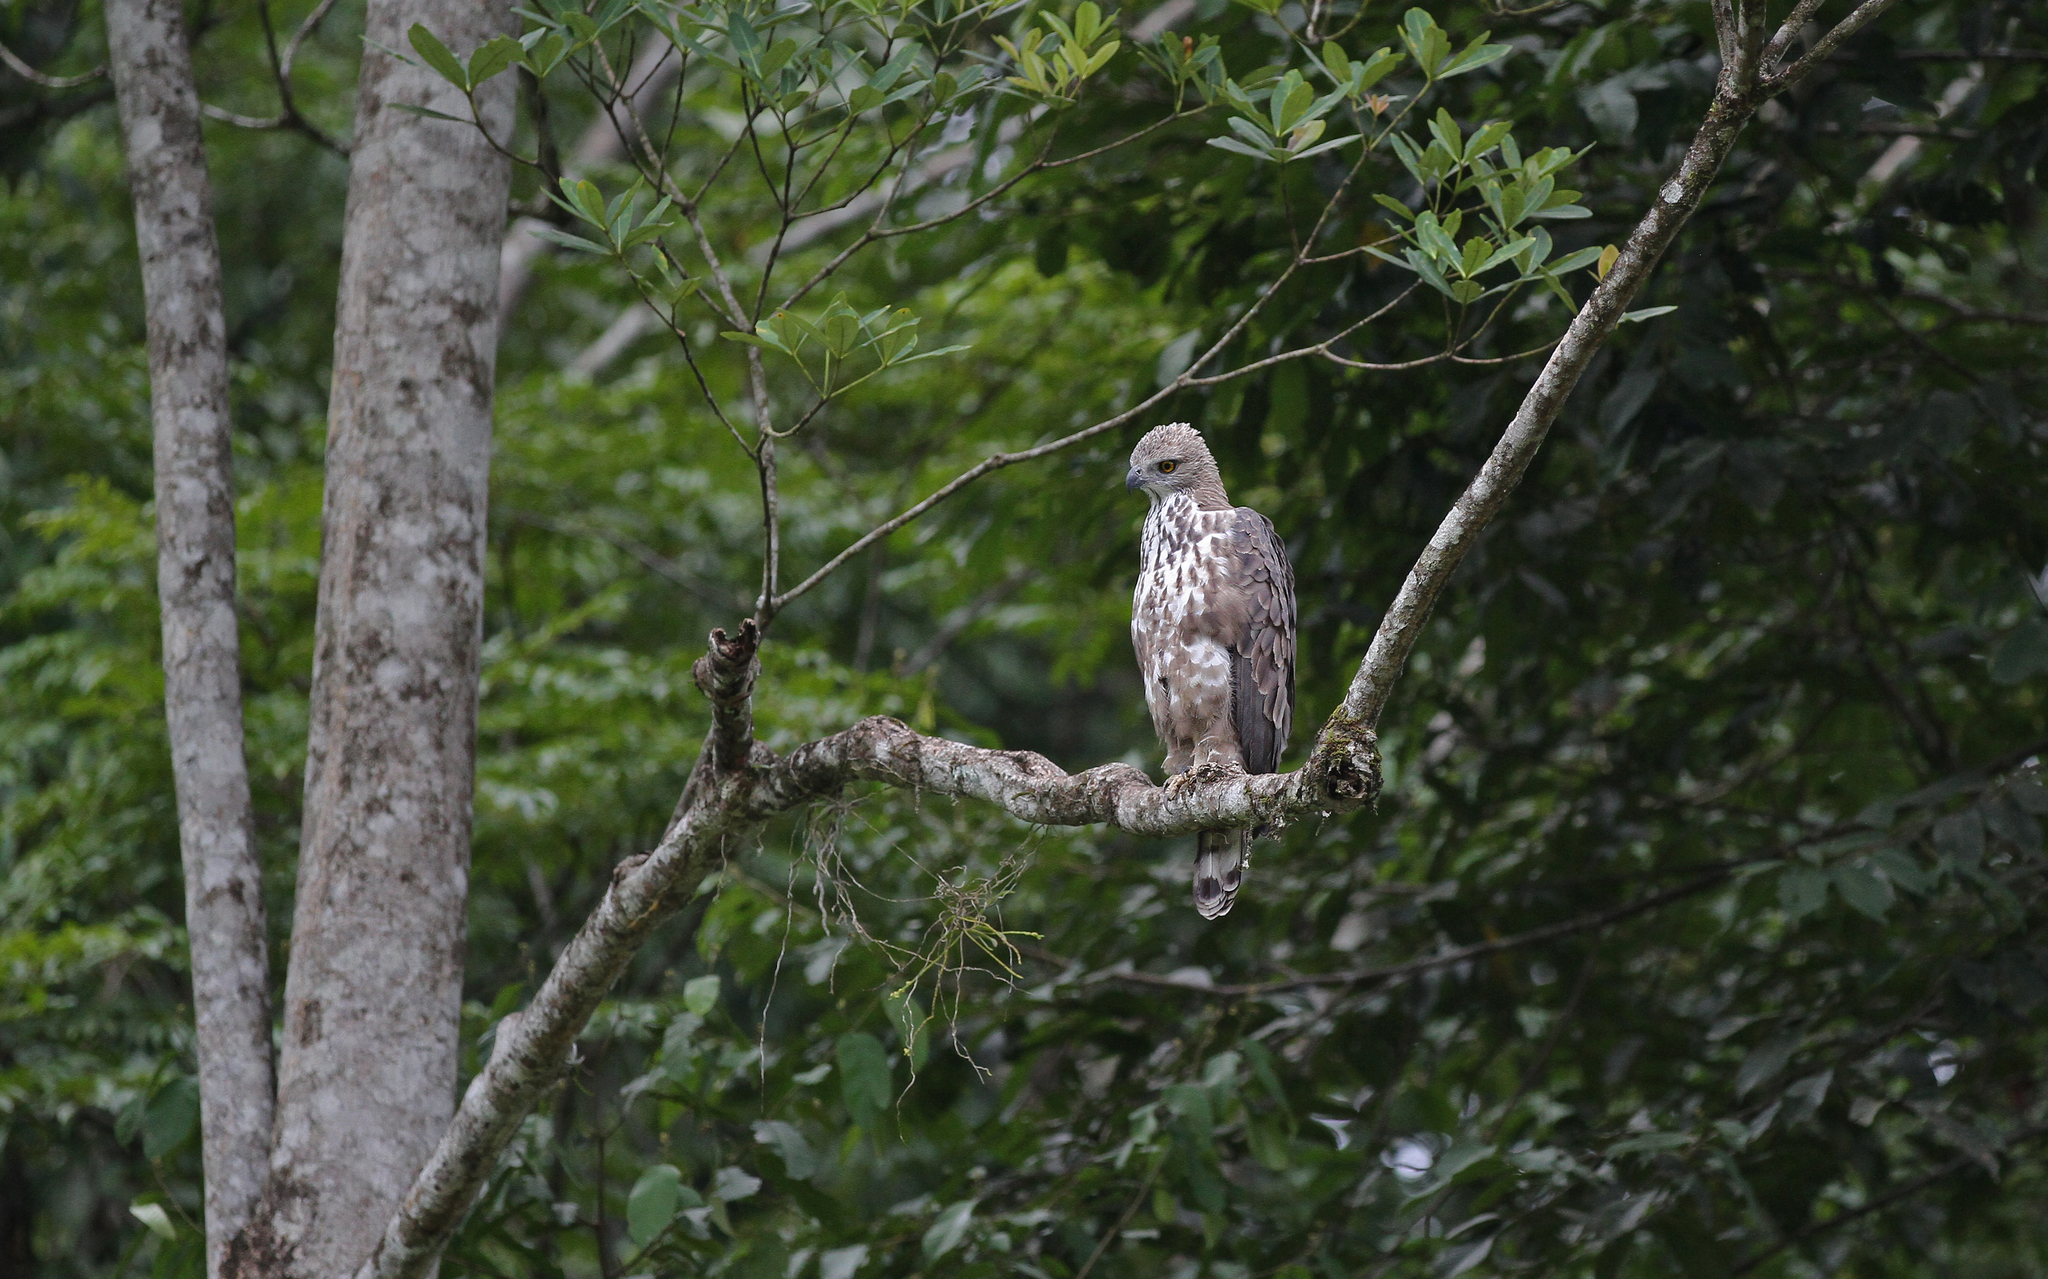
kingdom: Animalia
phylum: Chordata
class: Aves
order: Accipitriformes
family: Accipitridae
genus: Nisaetus
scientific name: Nisaetus cirrhatus
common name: Changeable hawk-eagle
